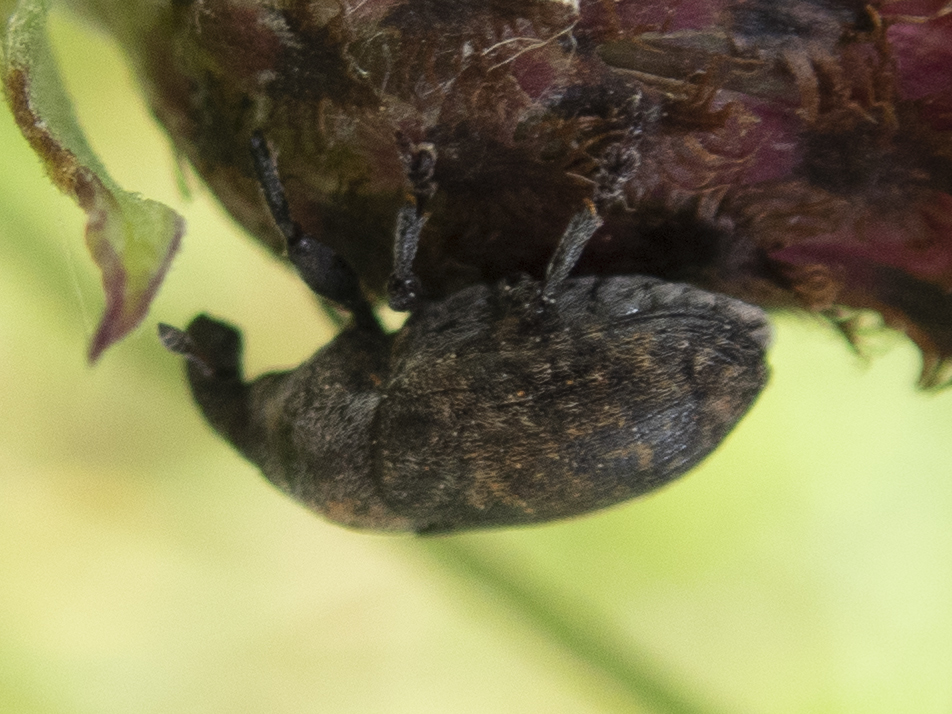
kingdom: Animalia
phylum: Arthropoda
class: Insecta
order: Coleoptera
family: Curculionidae
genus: Larinus
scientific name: Larinus obtusus
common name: Weevil
